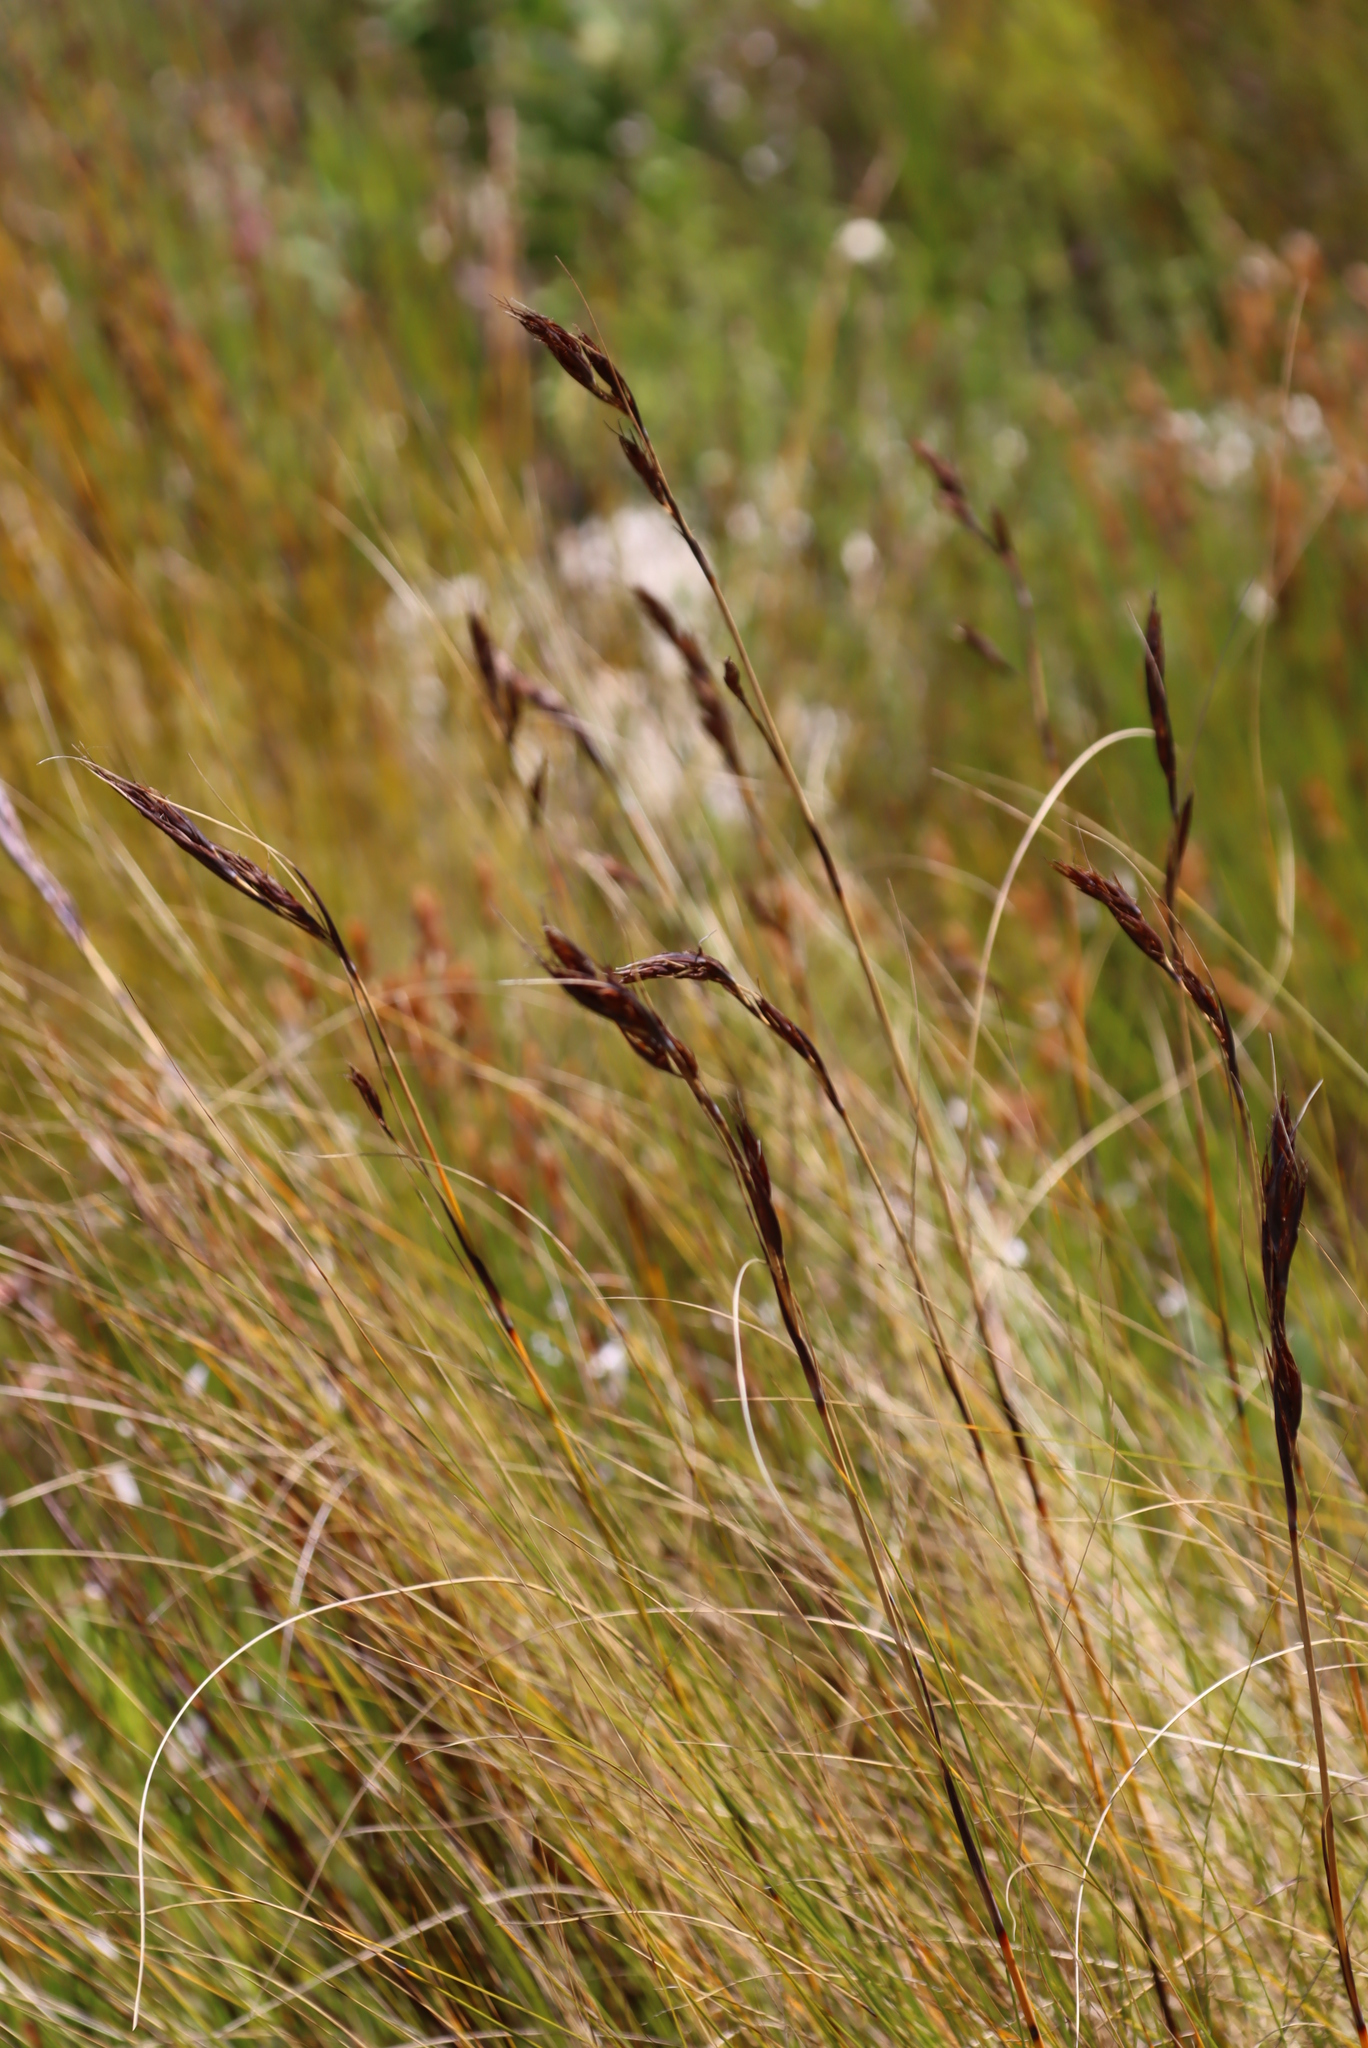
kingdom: Plantae
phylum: Tracheophyta
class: Liliopsida
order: Poales
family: Cyperaceae
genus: Tetraria
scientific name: Tetraria ustulata
